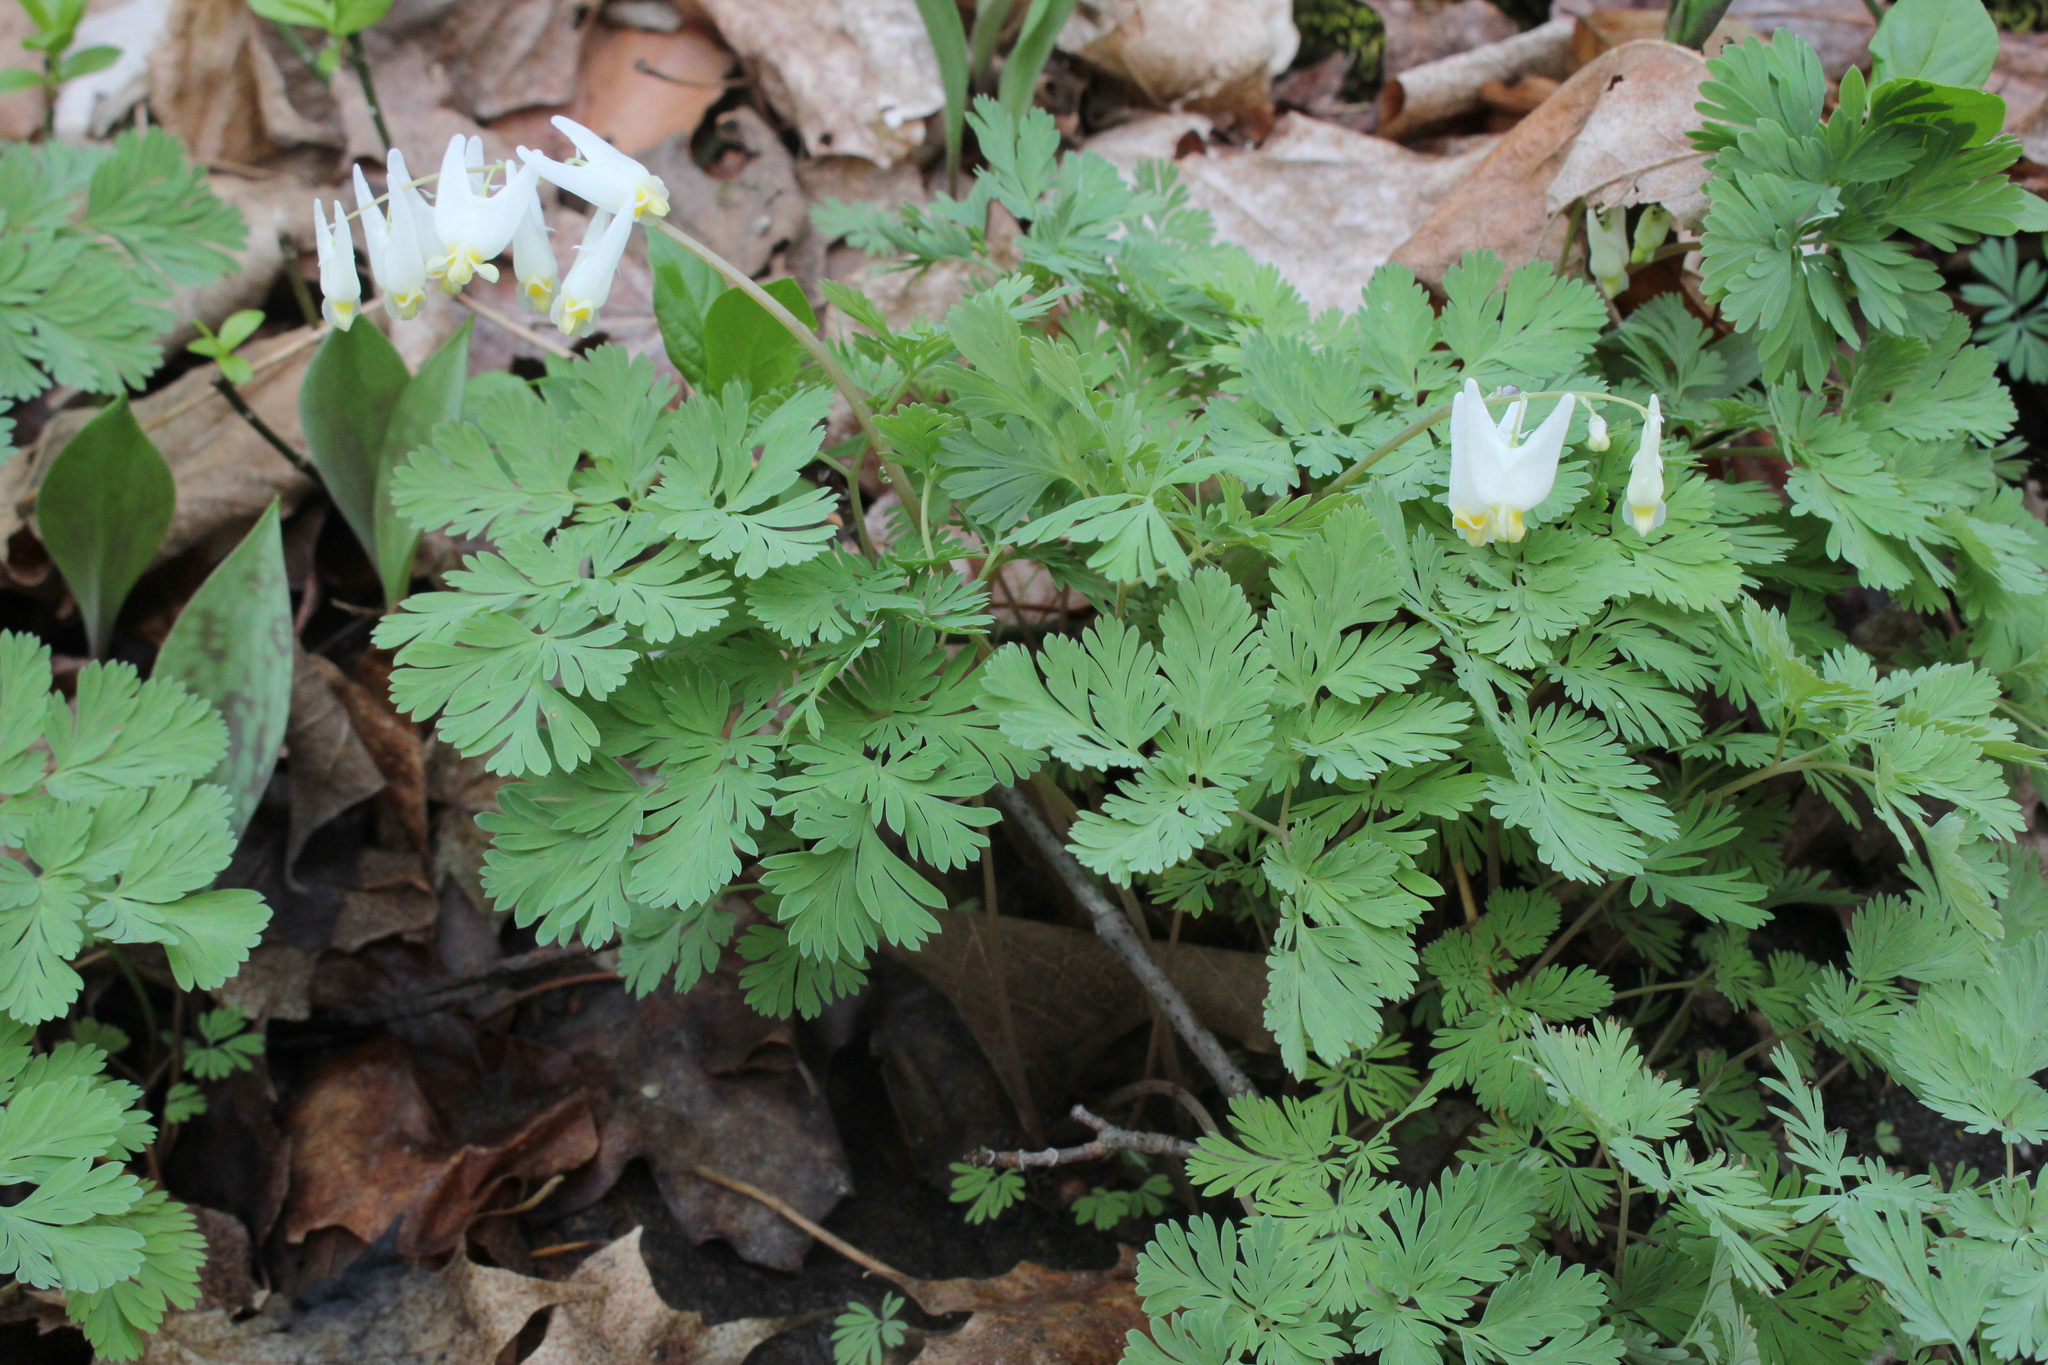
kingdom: Plantae
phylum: Tracheophyta
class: Magnoliopsida
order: Ranunculales
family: Papaveraceae
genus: Dicentra
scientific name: Dicentra cucullaria
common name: Dutchman's breeches
